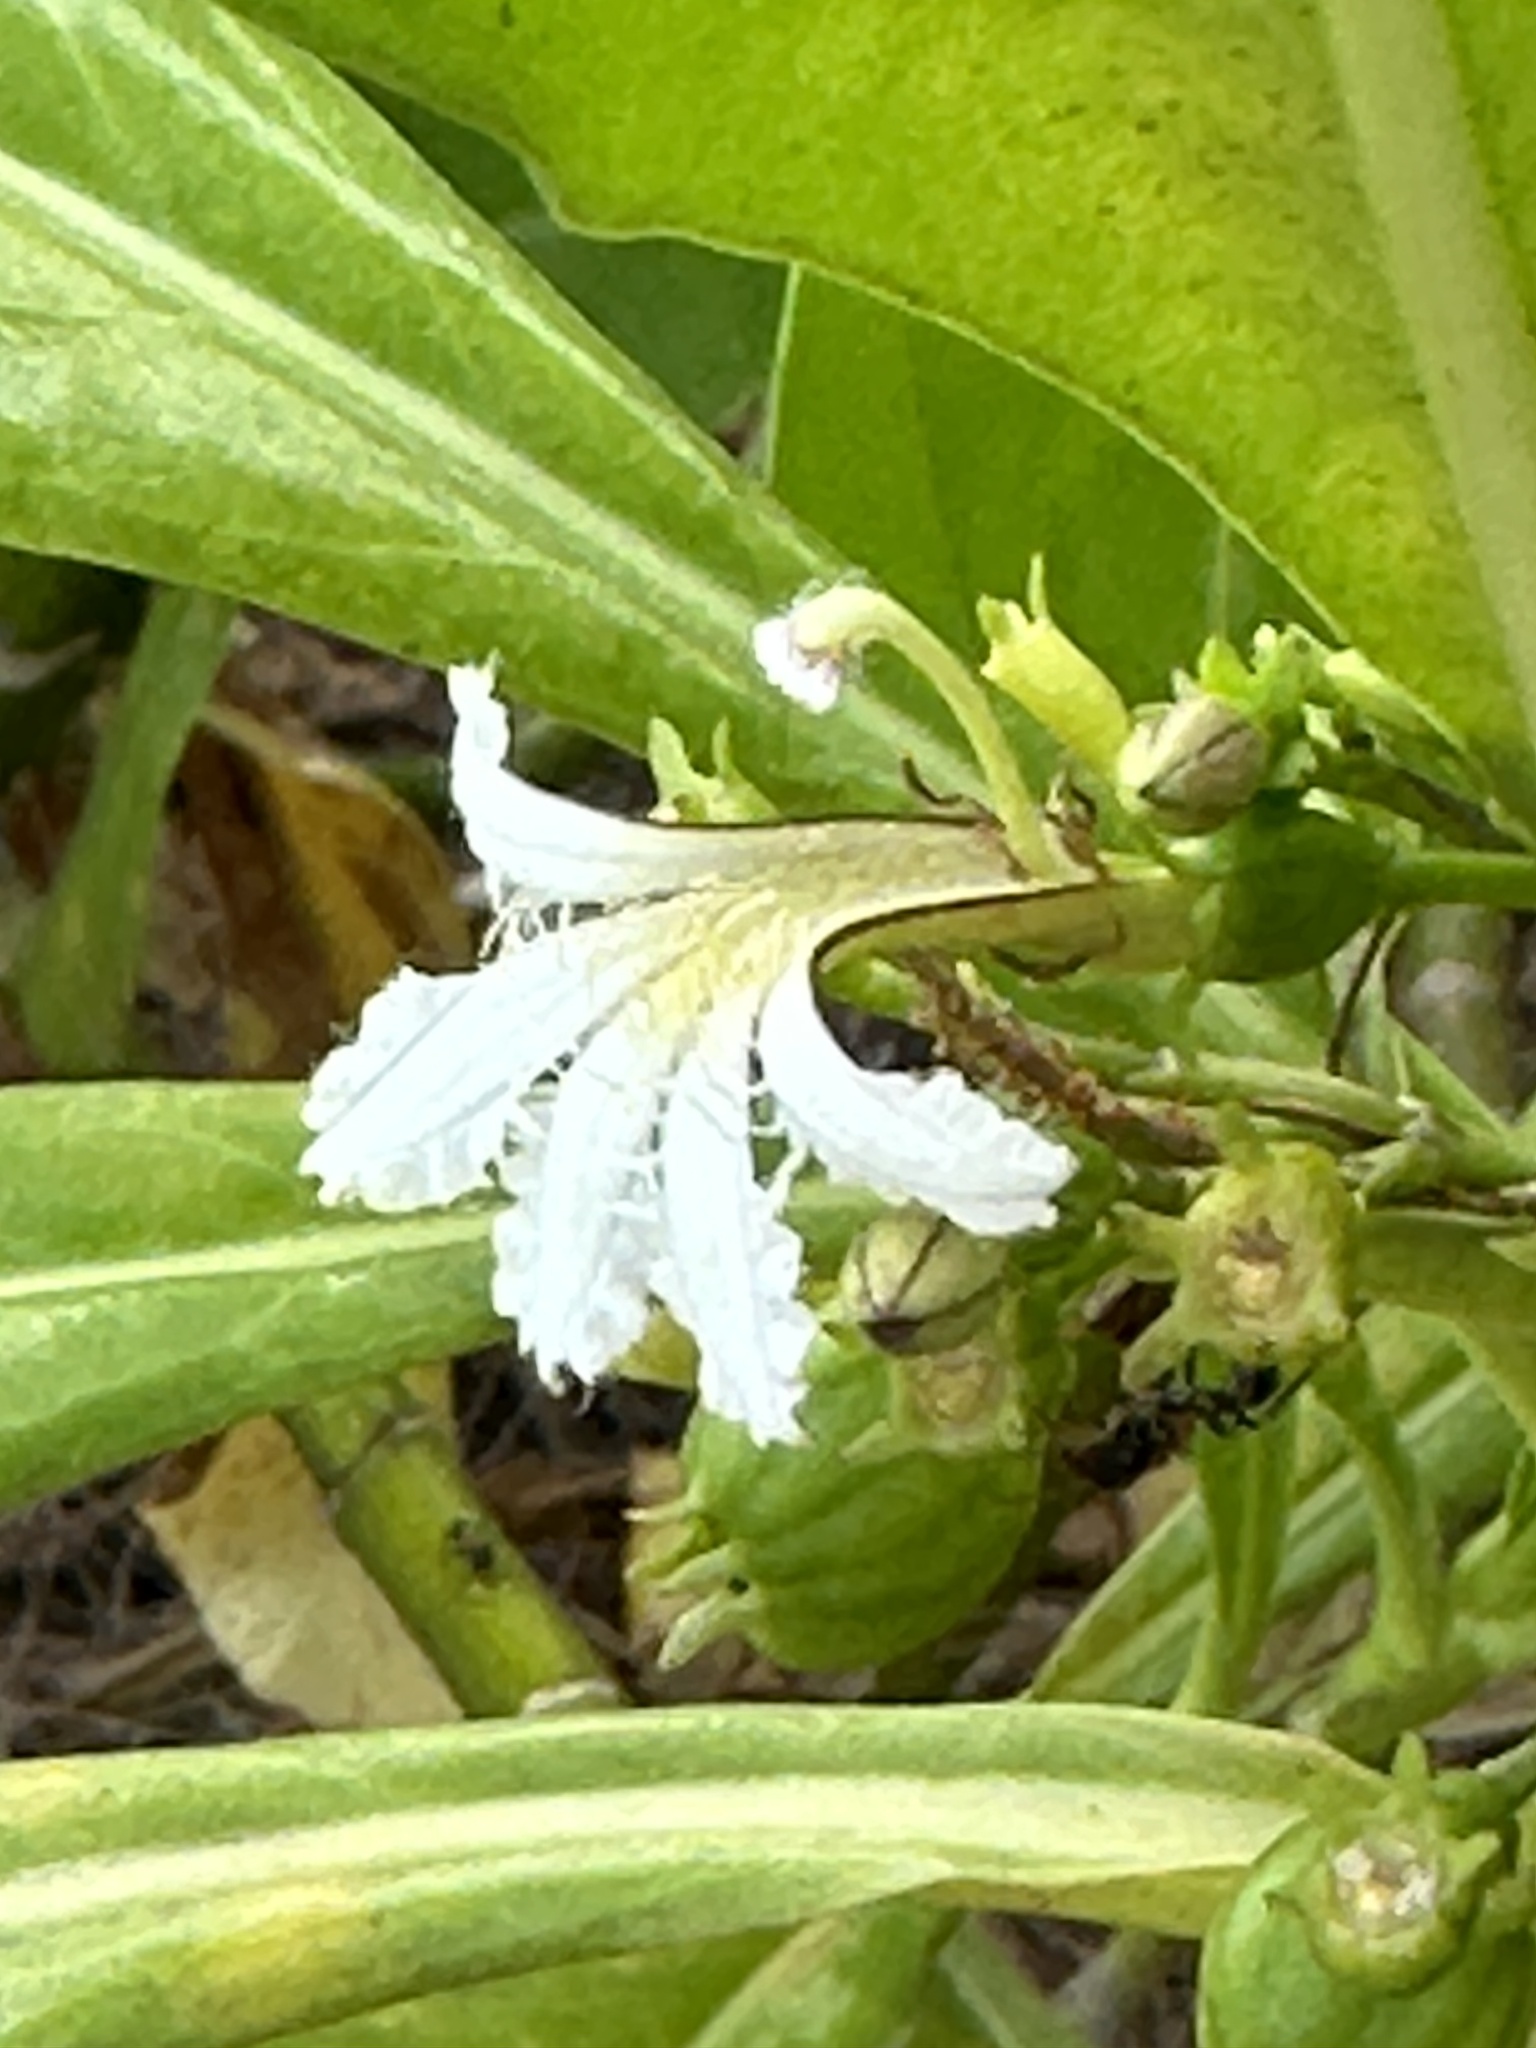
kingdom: Plantae
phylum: Tracheophyta
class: Magnoliopsida
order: Asterales
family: Goodeniaceae
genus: Scaevola
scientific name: Scaevola taccada
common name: Sea lettucetree
